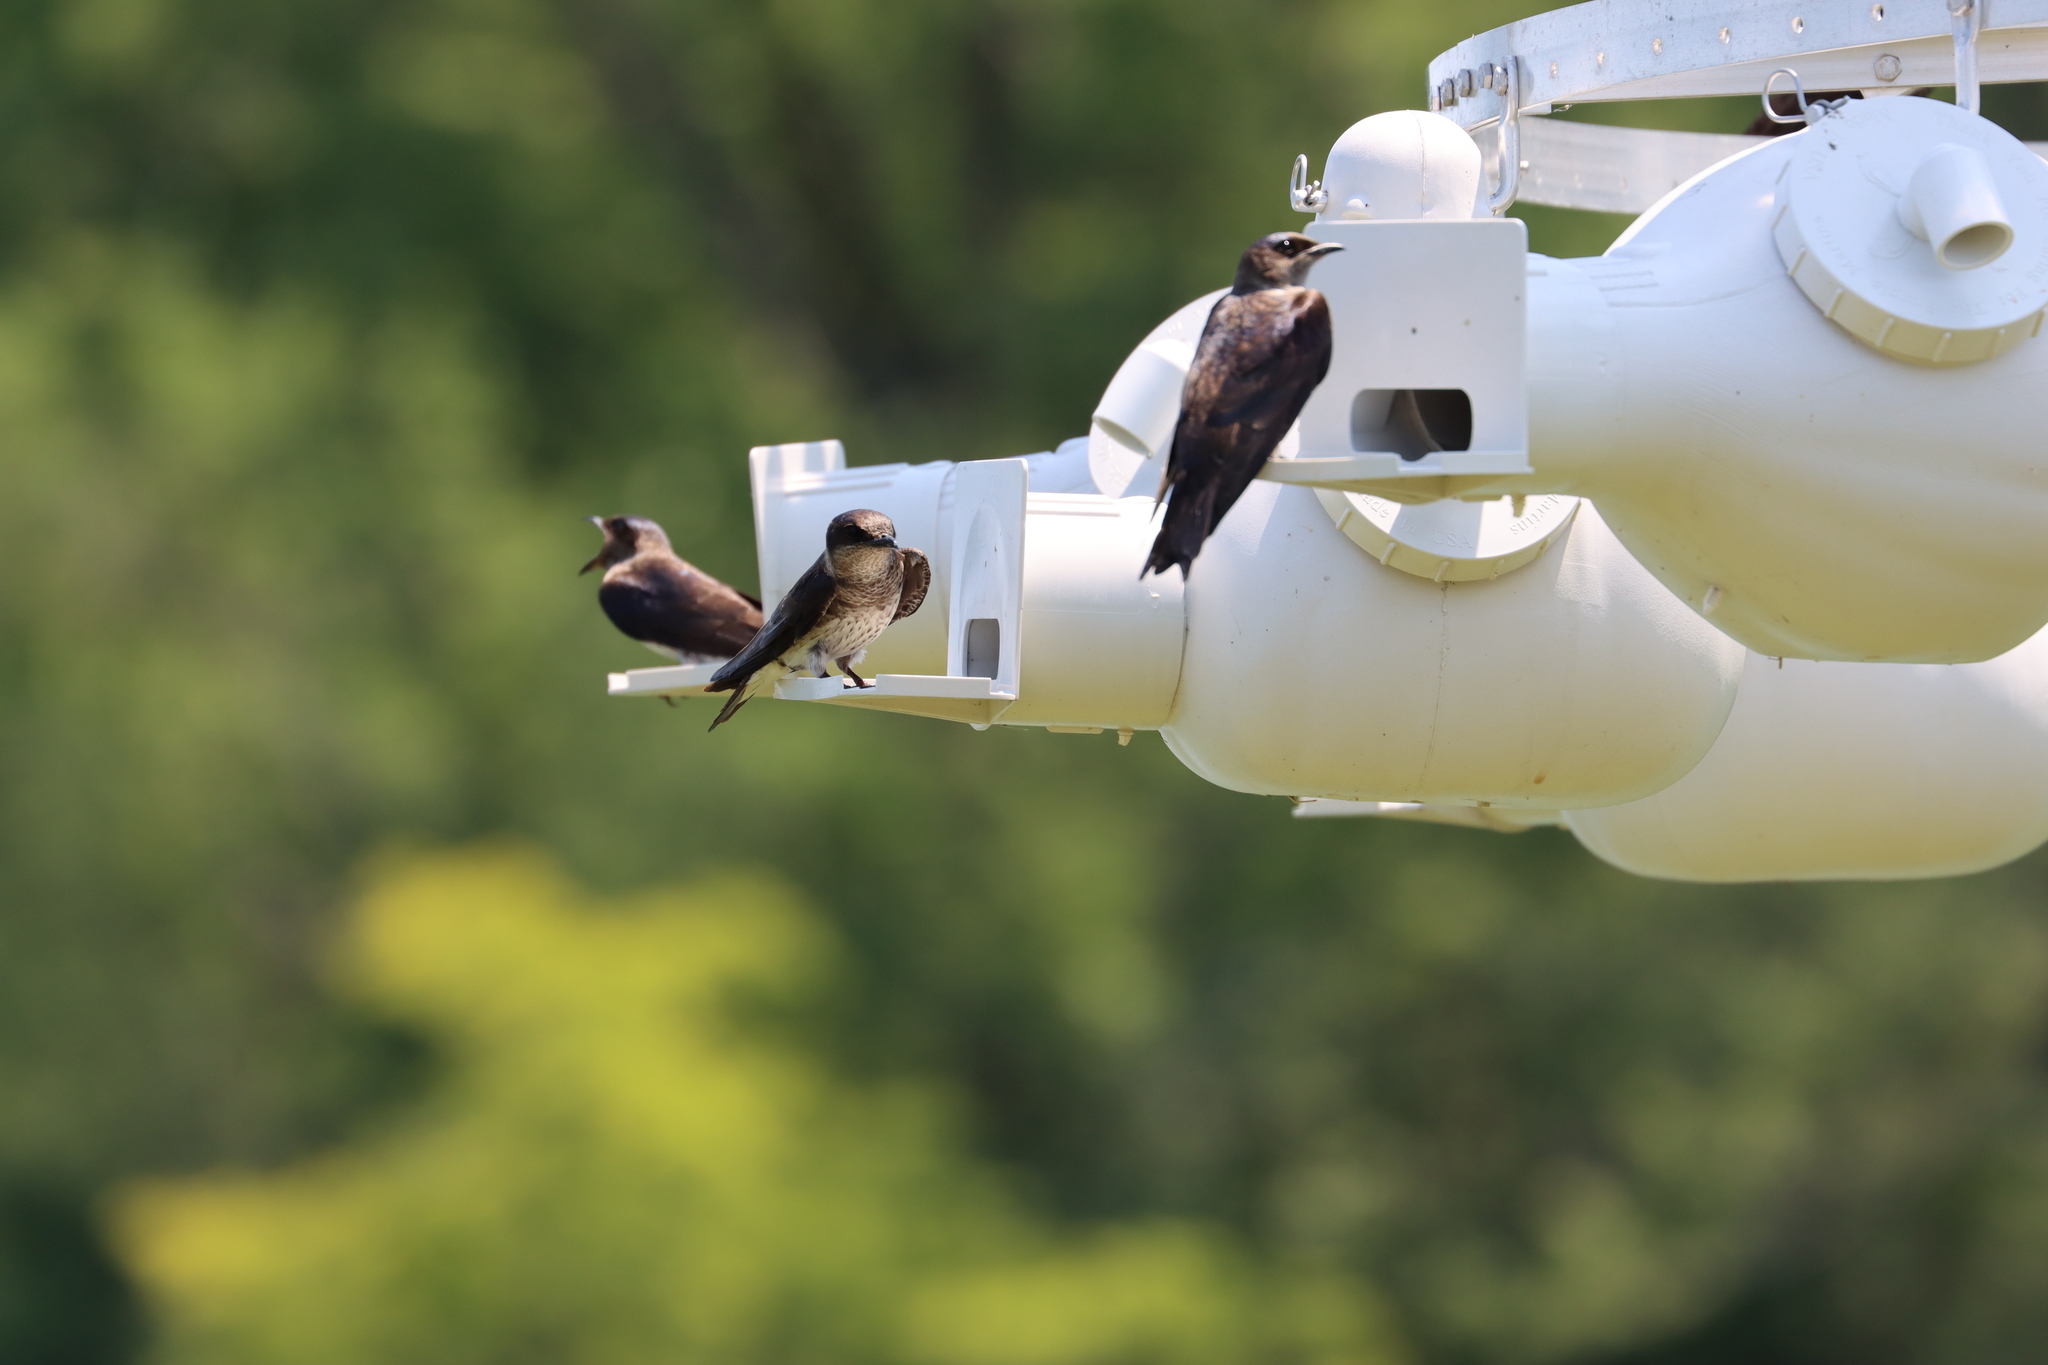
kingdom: Animalia
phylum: Chordata
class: Aves
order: Passeriformes
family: Hirundinidae
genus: Progne
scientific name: Progne subis
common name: Purple martin
